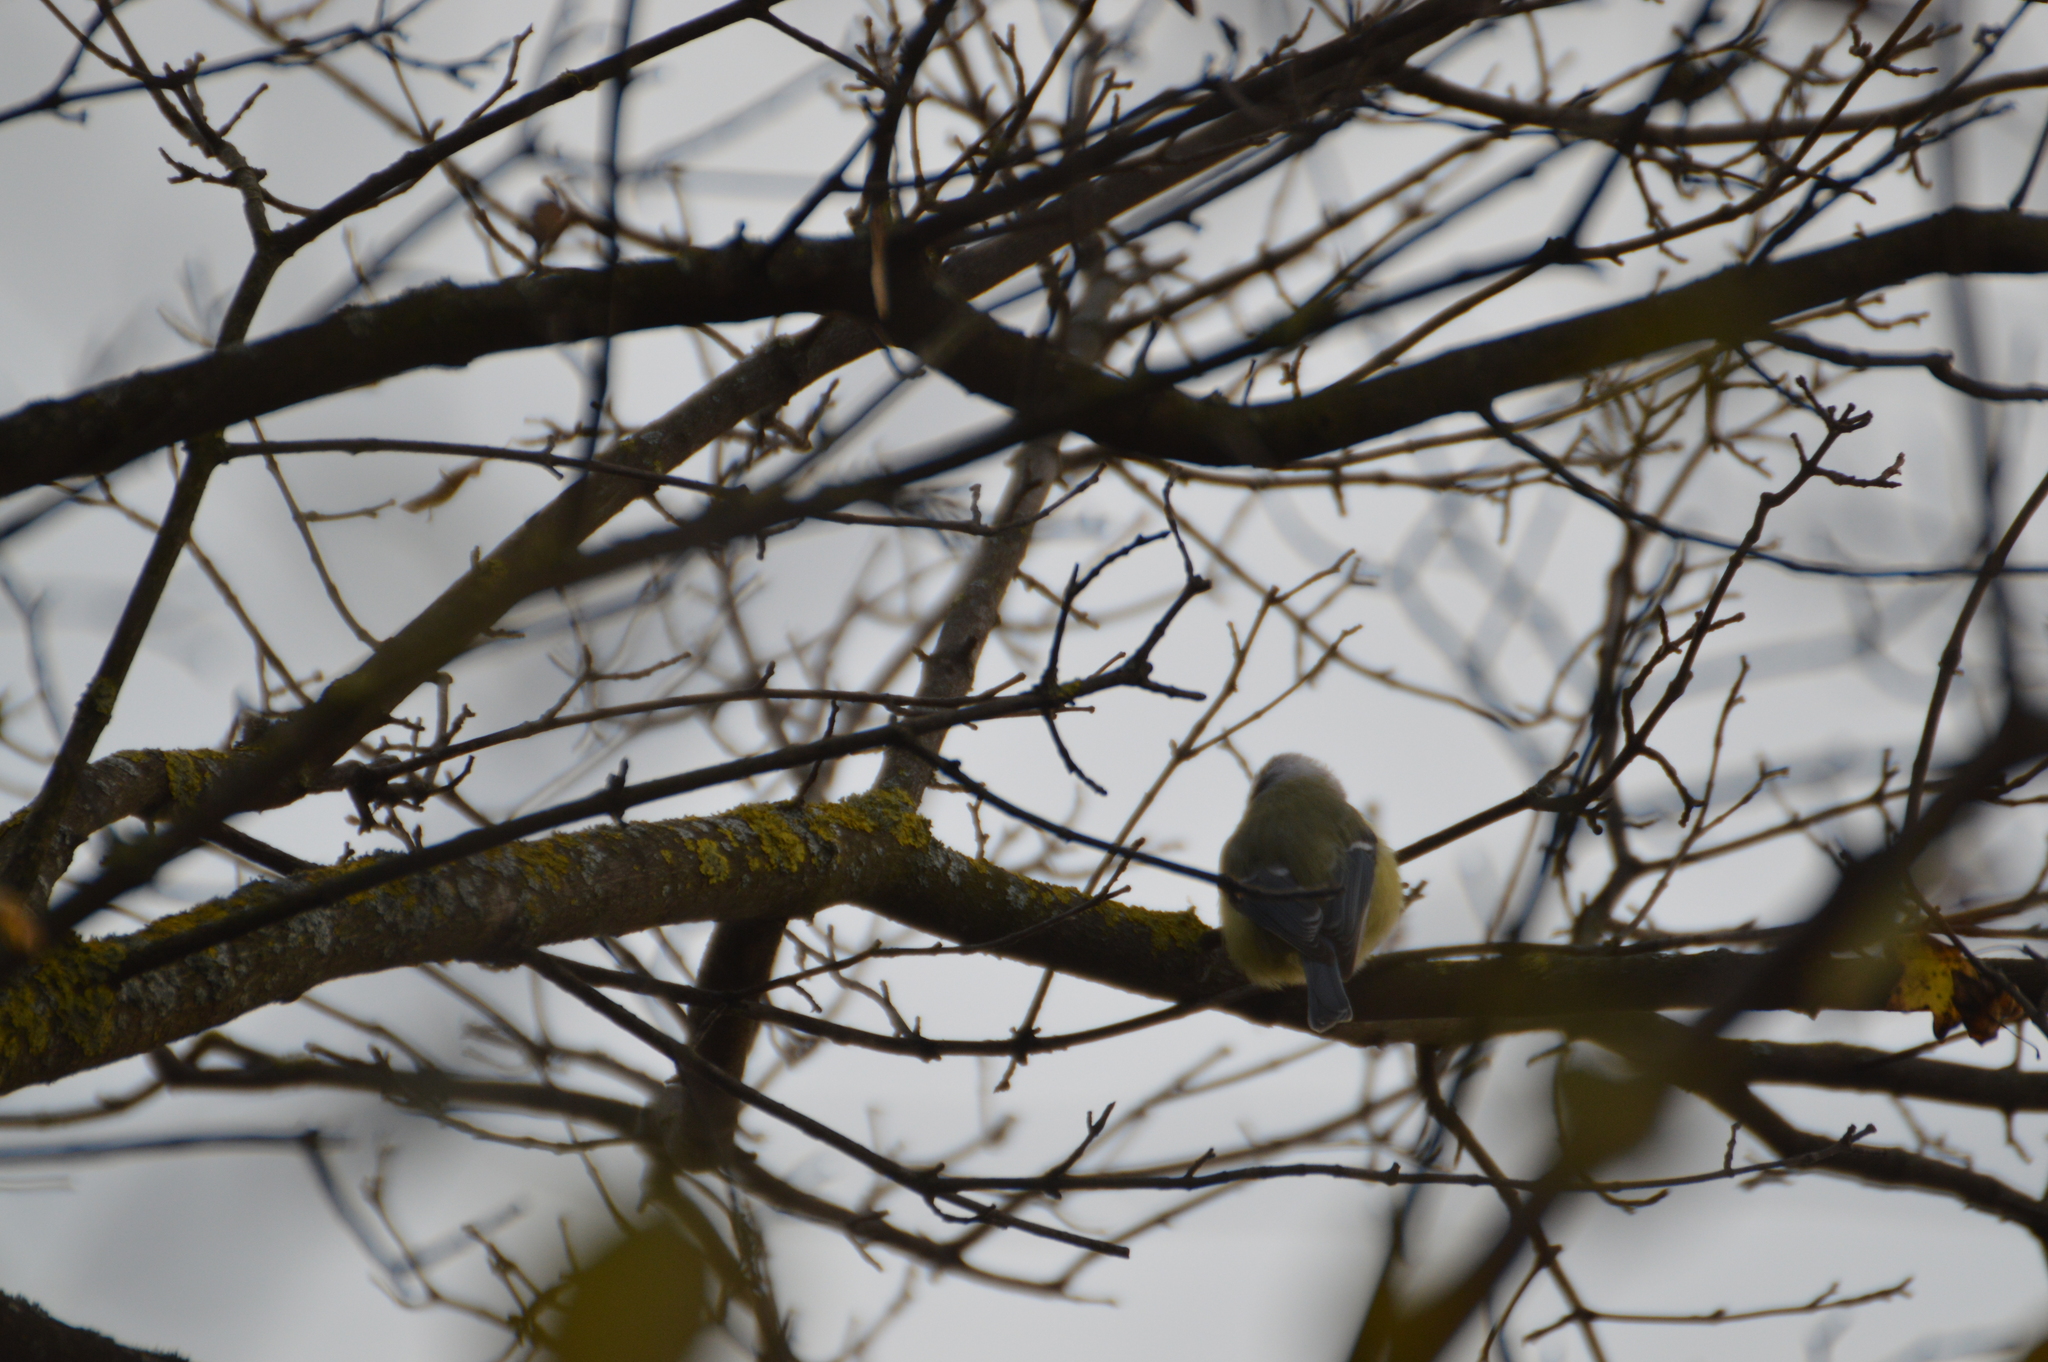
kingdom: Animalia
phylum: Chordata
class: Aves
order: Passeriformes
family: Paridae
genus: Cyanistes
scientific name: Cyanistes caeruleus
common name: Eurasian blue tit
